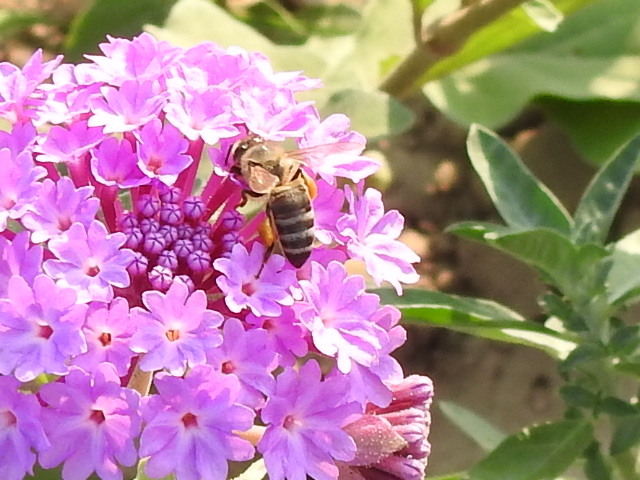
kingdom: Animalia
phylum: Arthropoda
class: Insecta
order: Hymenoptera
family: Apidae
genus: Apis
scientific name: Apis mellifera
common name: Honey bee
